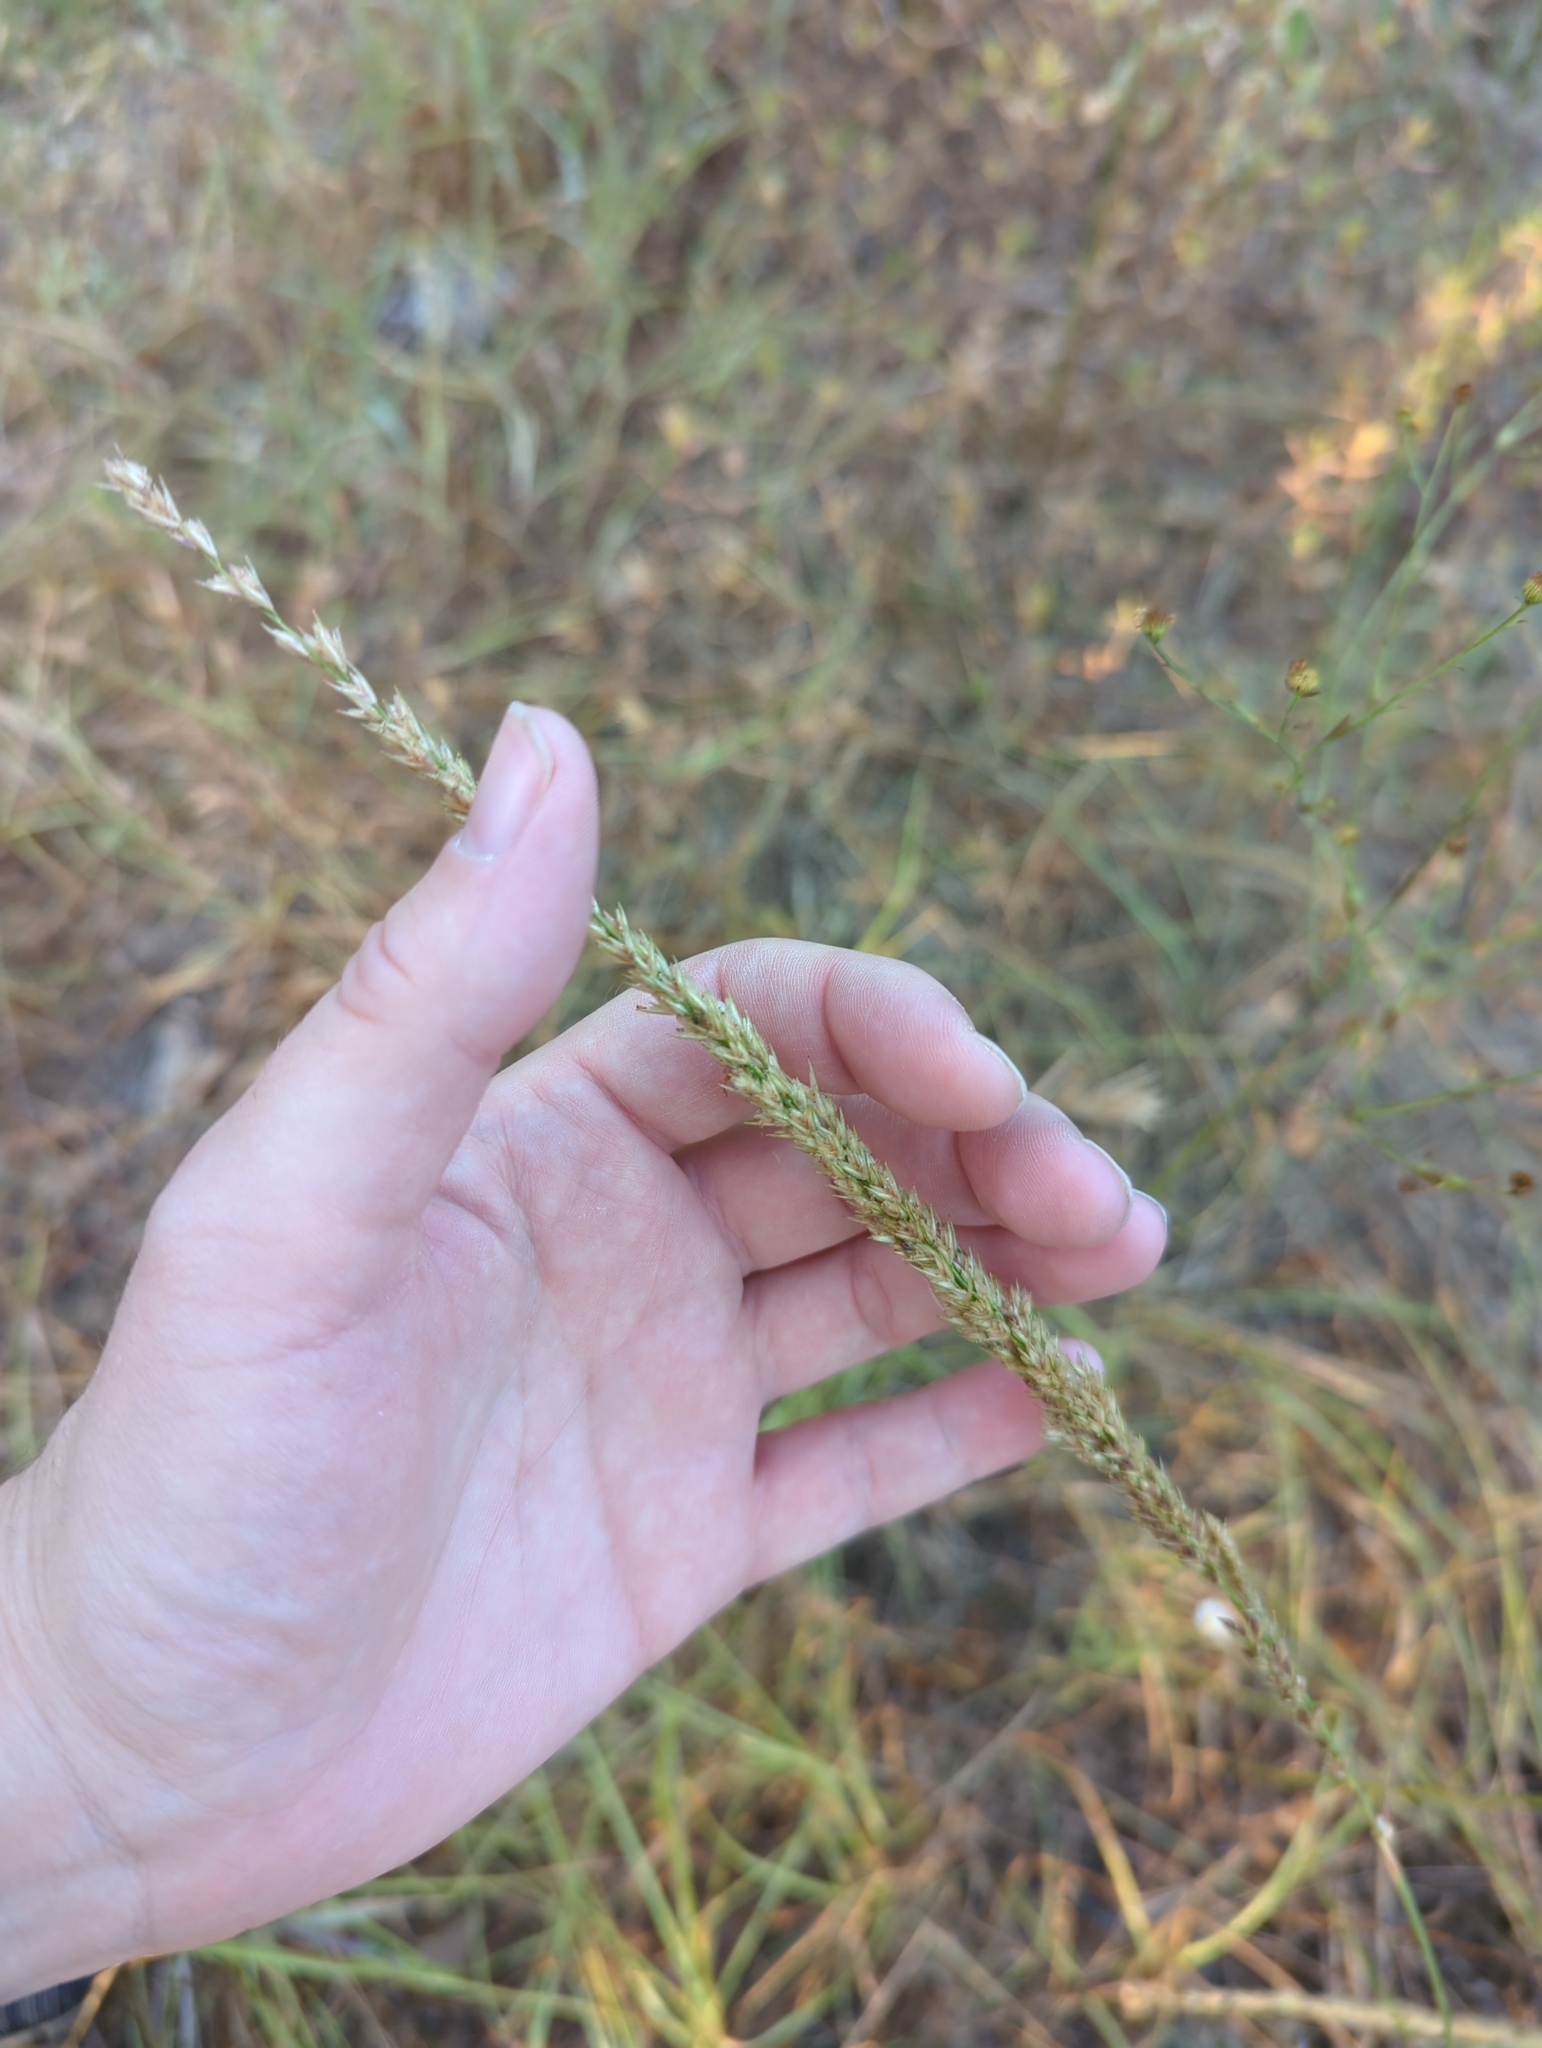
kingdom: Plantae
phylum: Tracheophyta
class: Liliopsida
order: Poales
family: Poaceae
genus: Tridens
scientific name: Tridens albescens
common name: White tridens
